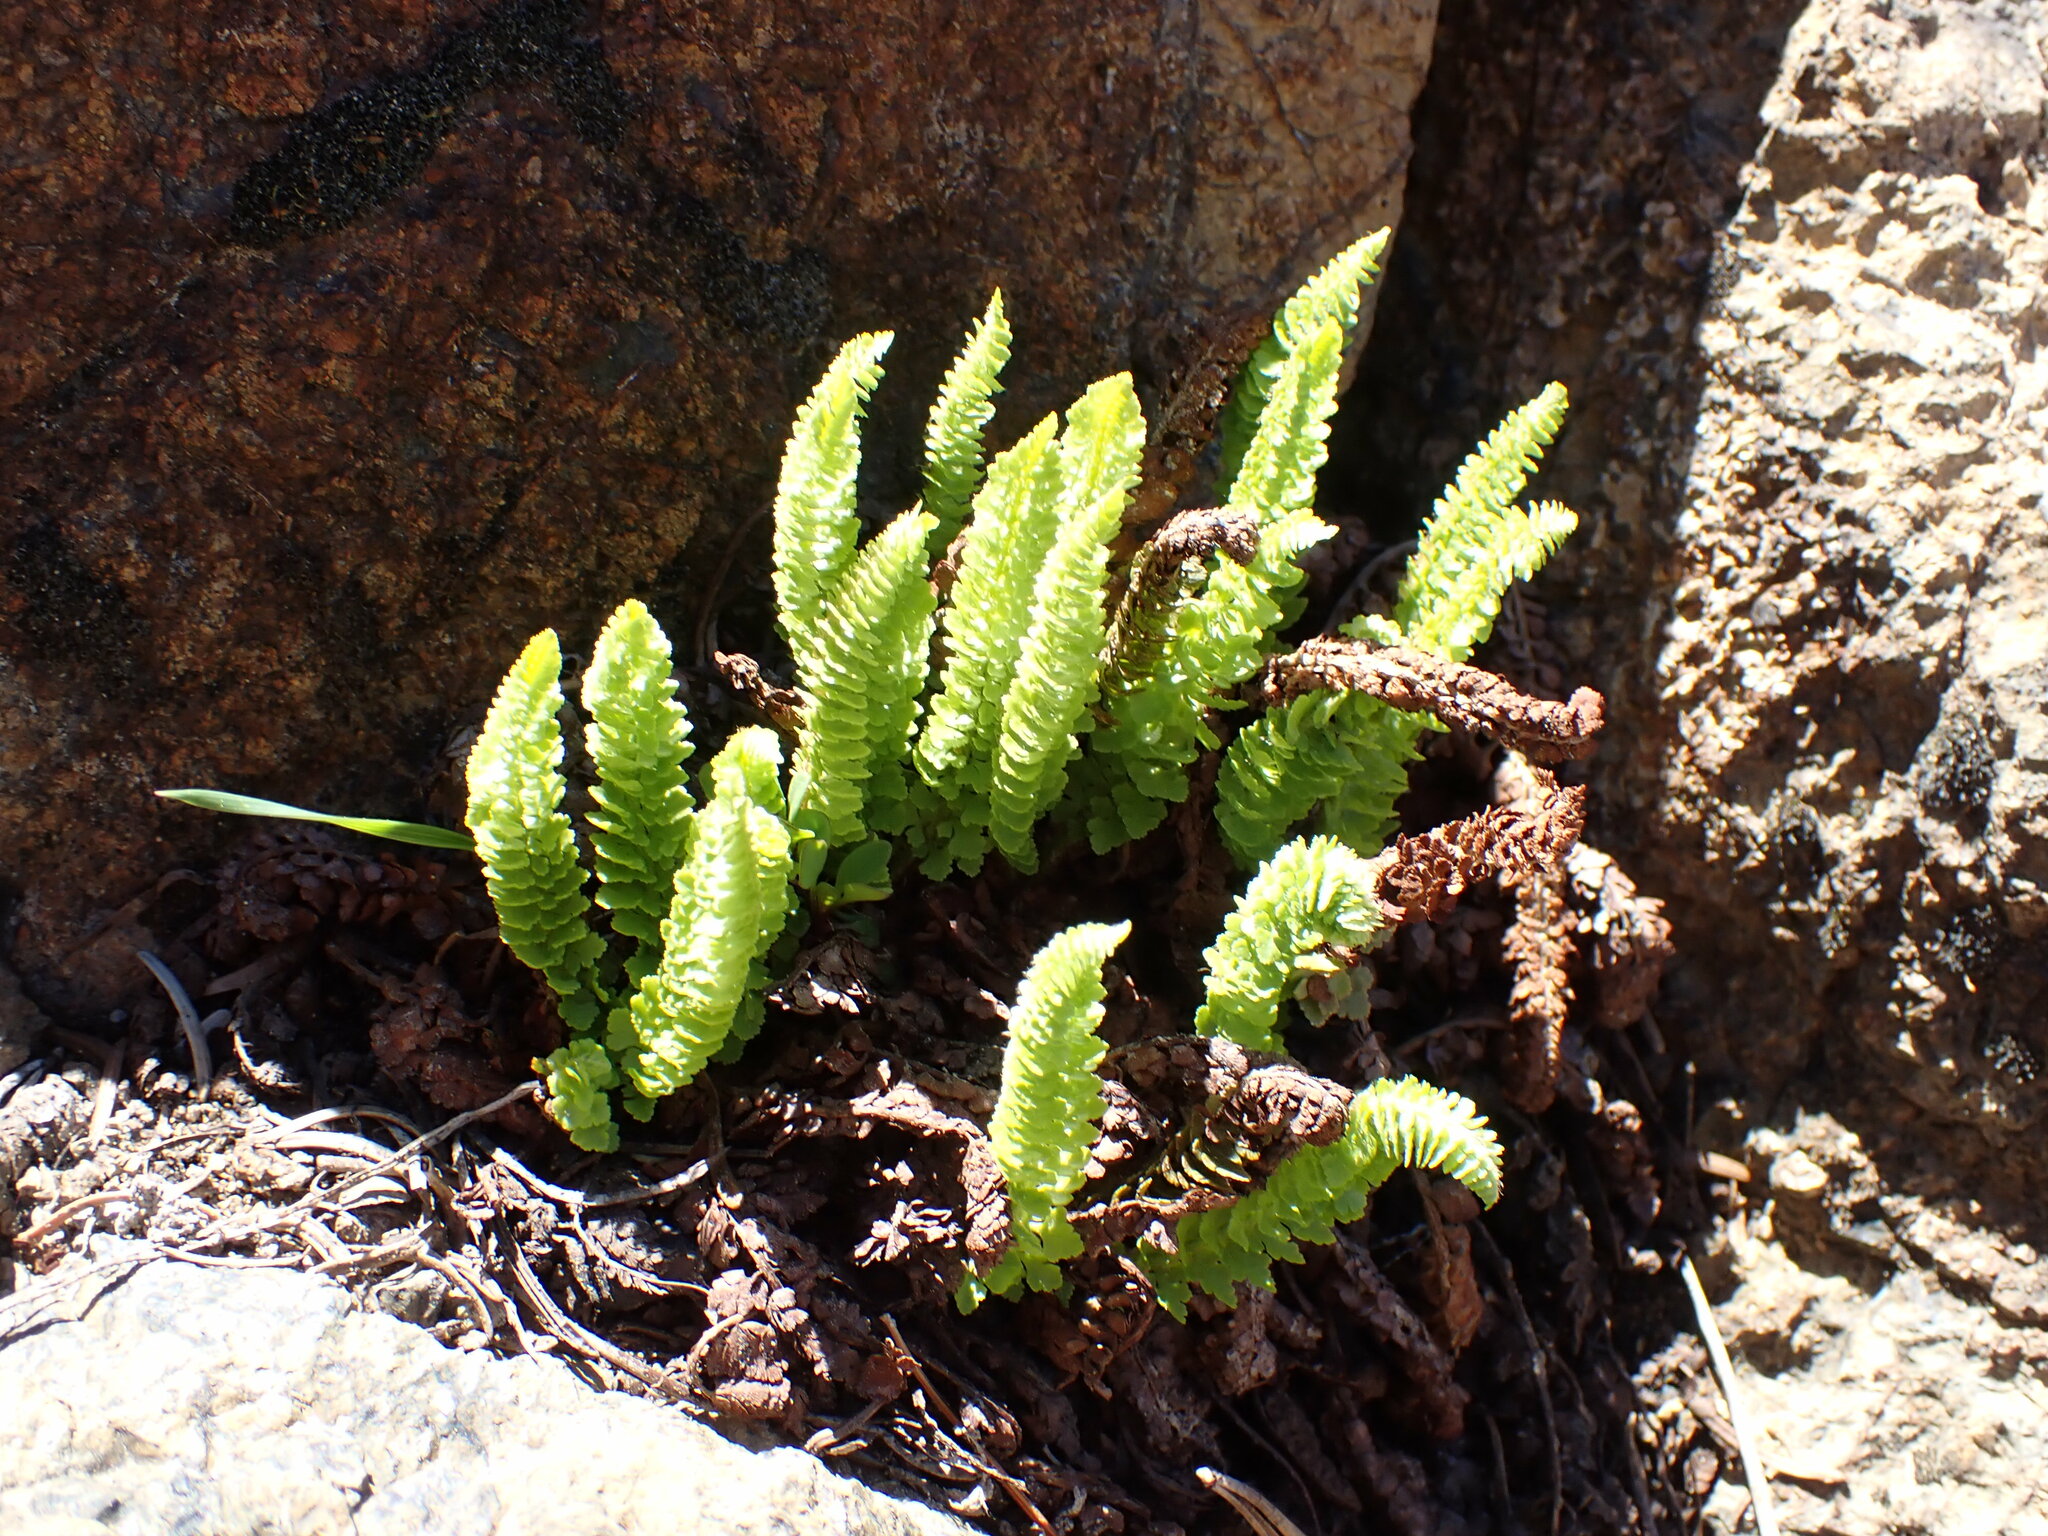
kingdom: Plantae
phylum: Tracheophyta
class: Polypodiopsida
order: Polypodiales
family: Dryopteridaceae
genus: Polystichum
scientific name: Polystichum lemmonii
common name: Lemmon's holly fern
